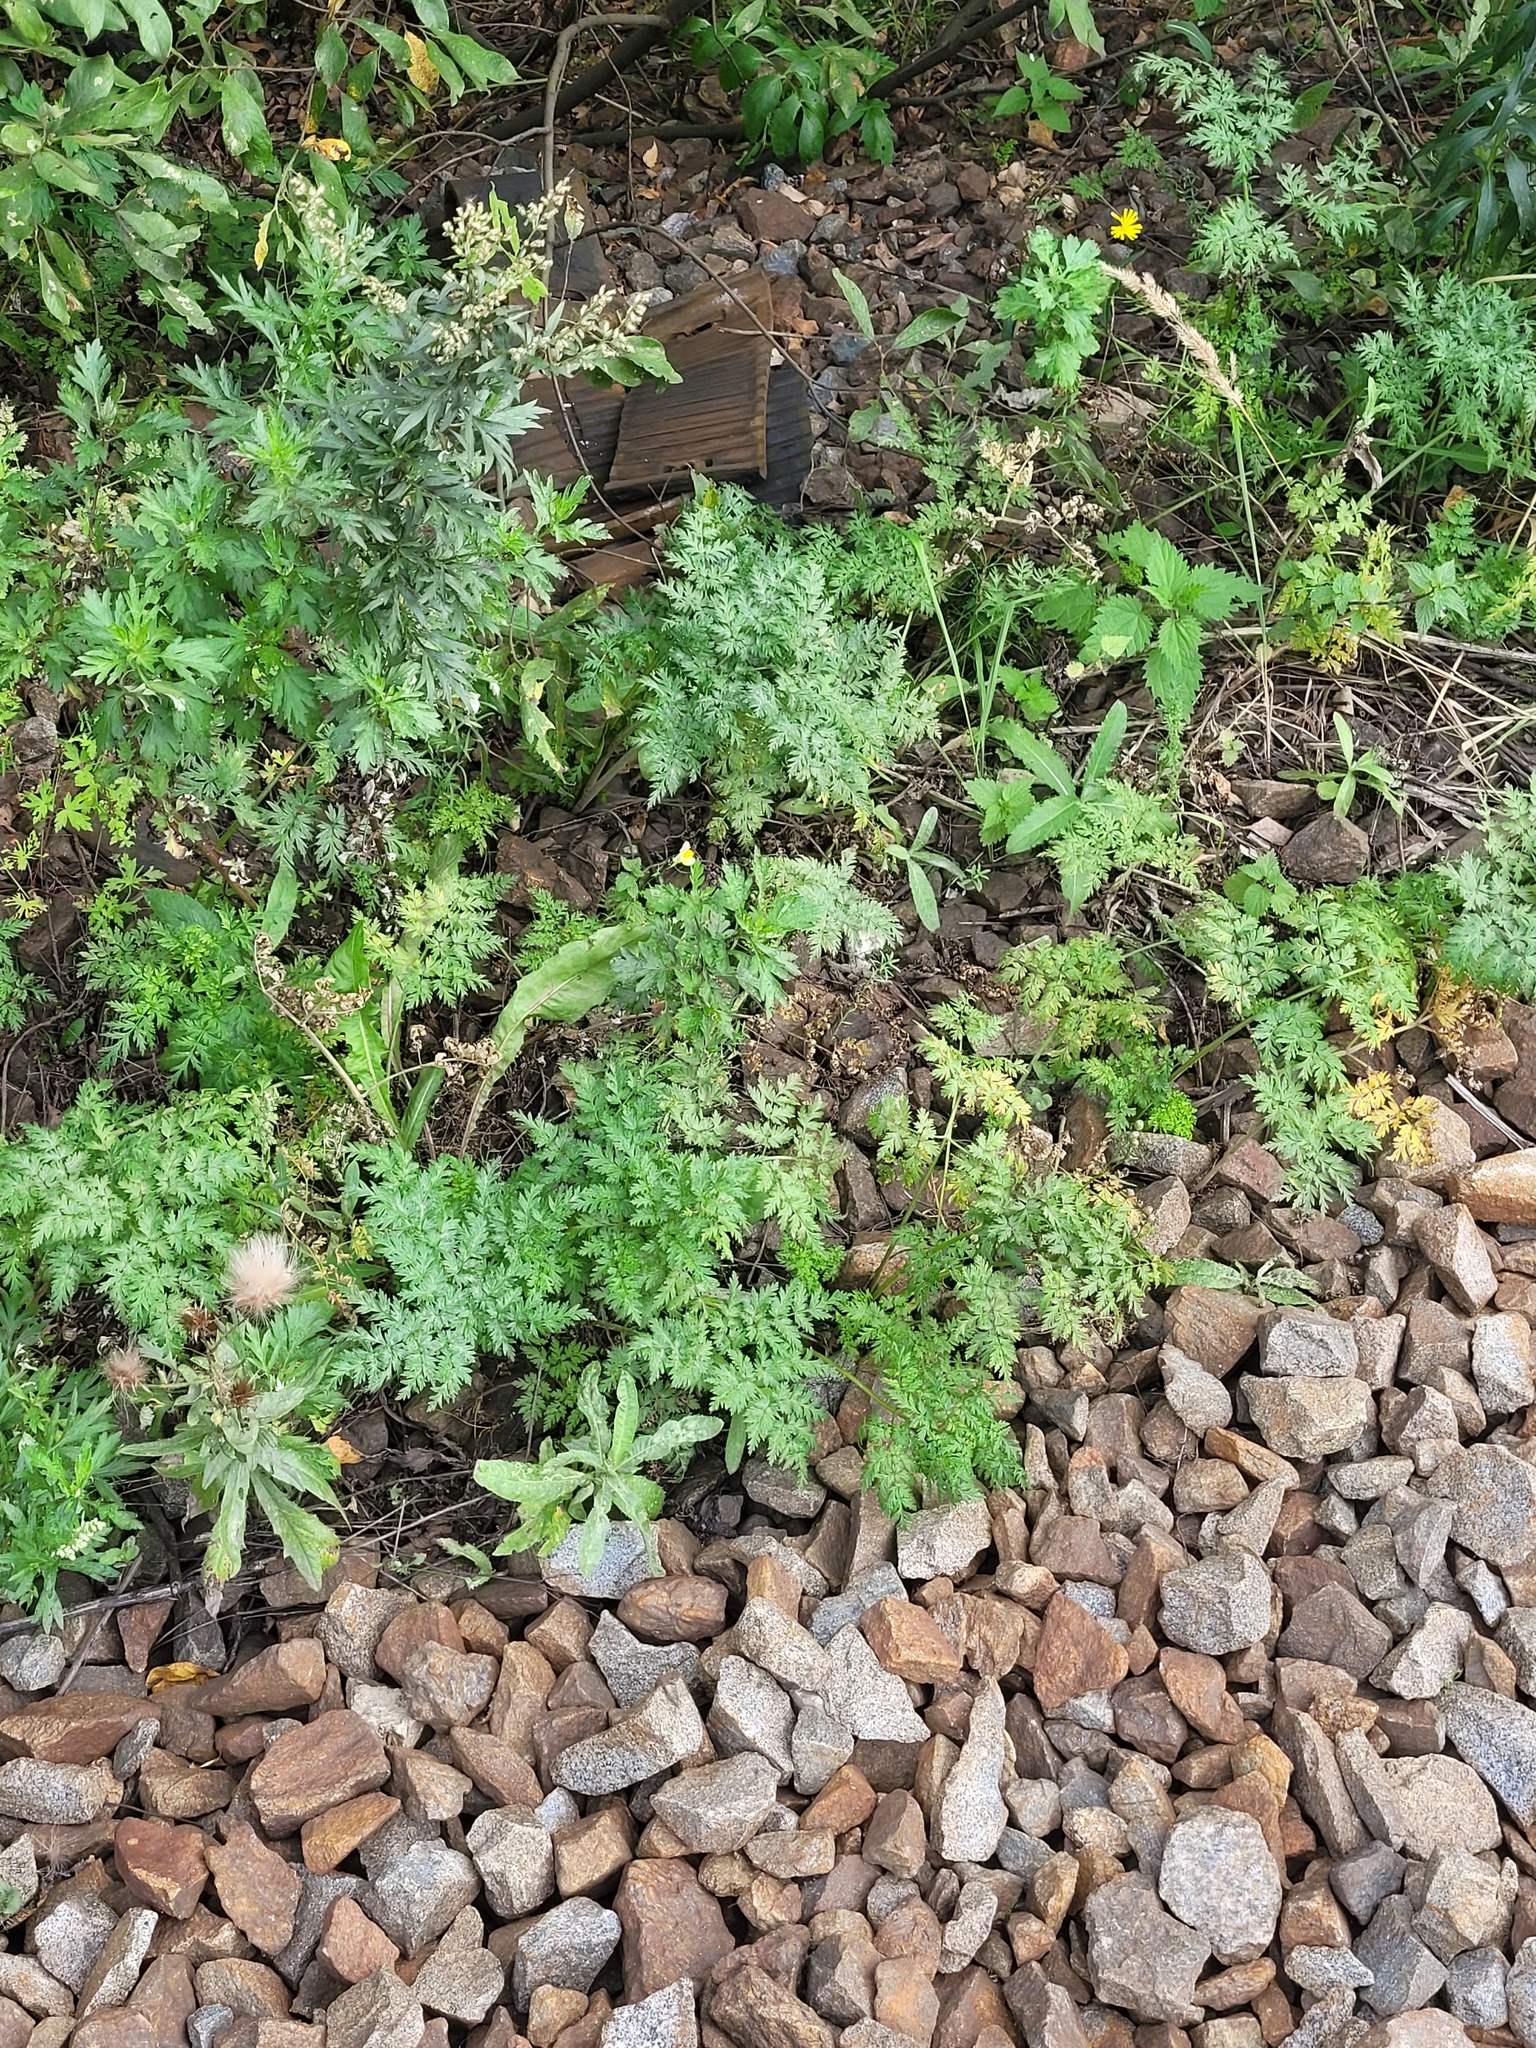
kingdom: Plantae
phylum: Tracheophyta
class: Magnoliopsida
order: Apiales
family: Apiaceae
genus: Anthriscus
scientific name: Anthriscus sylvestris
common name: Cow parsley
